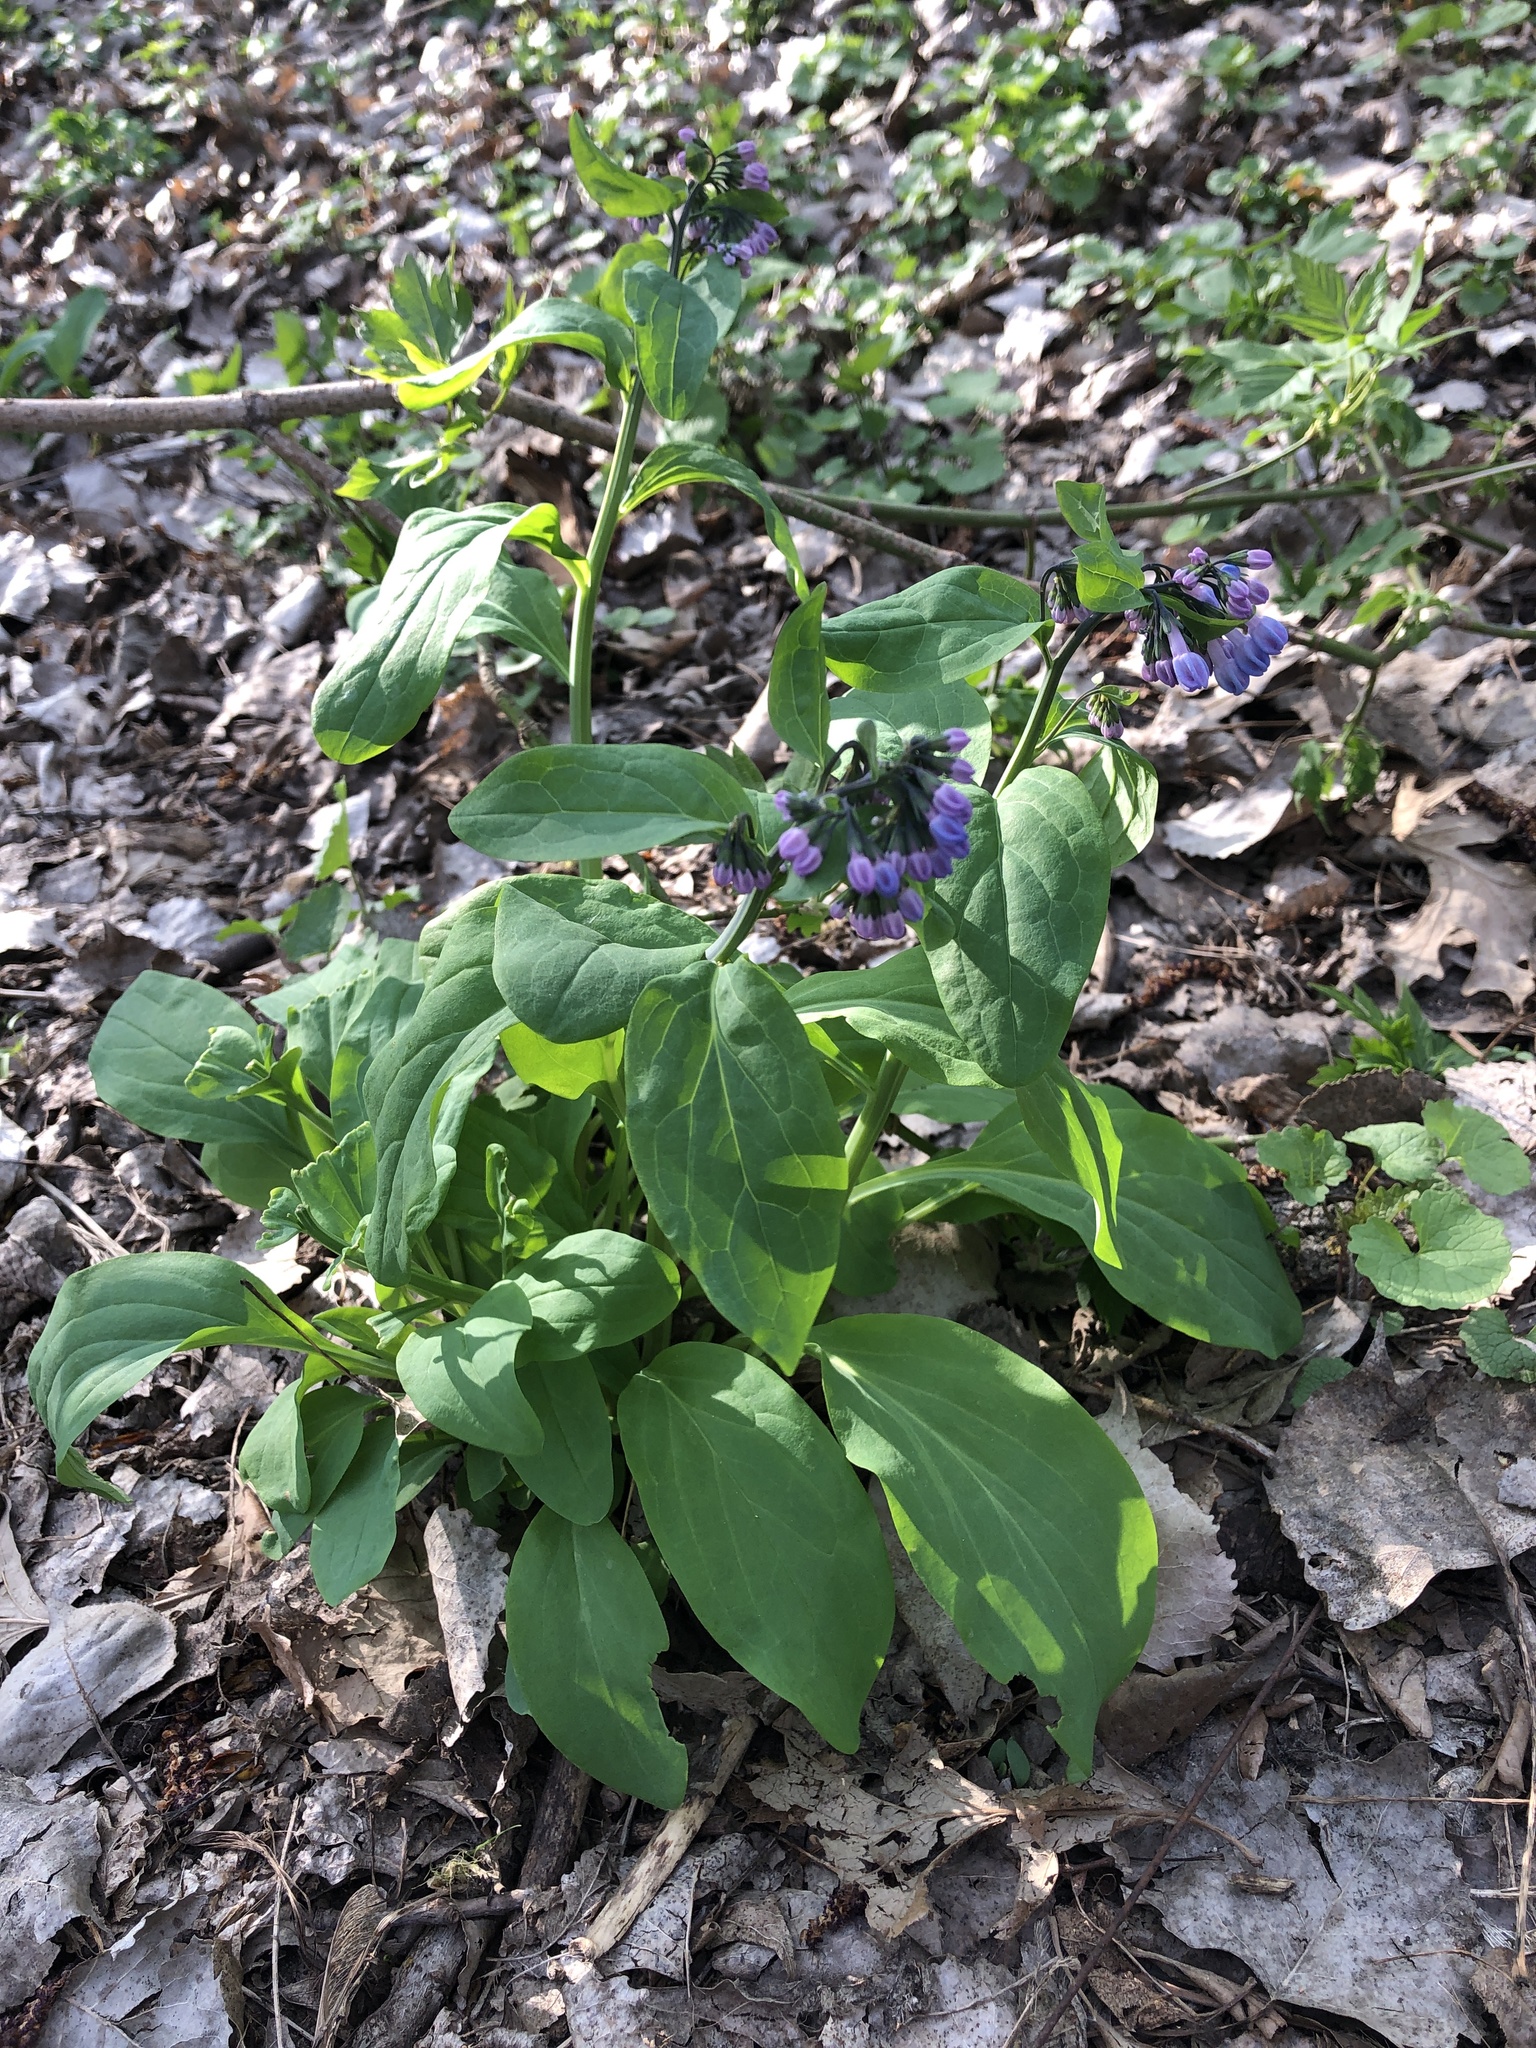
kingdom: Plantae
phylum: Tracheophyta
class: Magnoliopsida
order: Boraginales
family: Boraginaceae
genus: Mertensia
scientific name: Mertensia virginica
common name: Virginia bluebells
